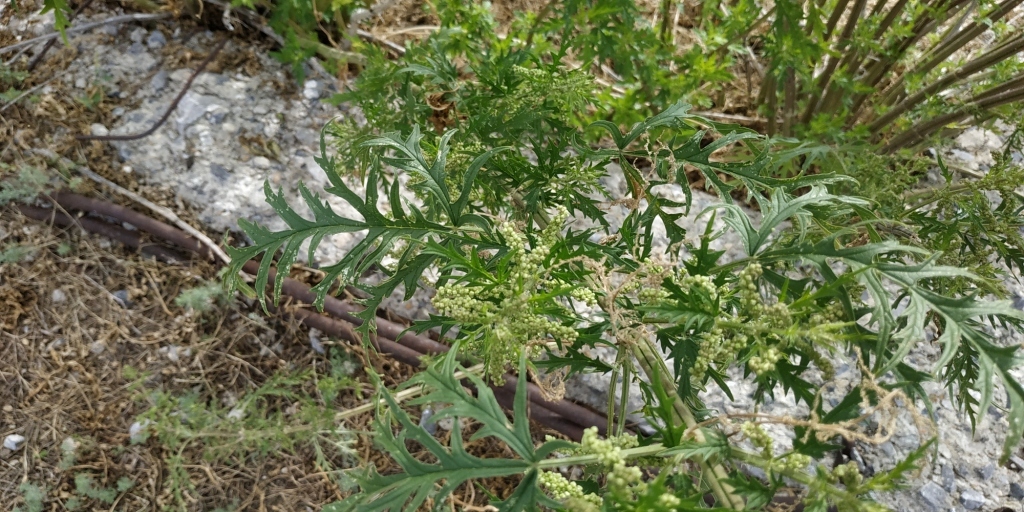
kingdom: Plantae
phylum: Tracheophyta
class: Magnoliopsida
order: Rosales
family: Urticaceae
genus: Urtica
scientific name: Urtica cannabina
